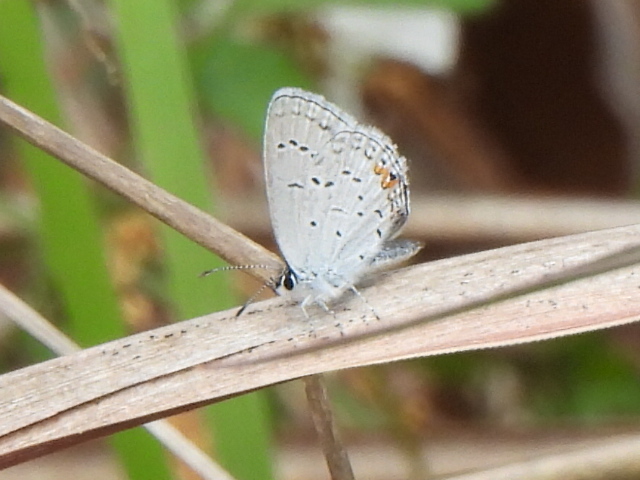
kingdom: Animalia
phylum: Arthropoda
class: Insecta
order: Lepidoptera
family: Lycaenidae
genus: Elkalyce
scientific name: Elkalyce comyntas
